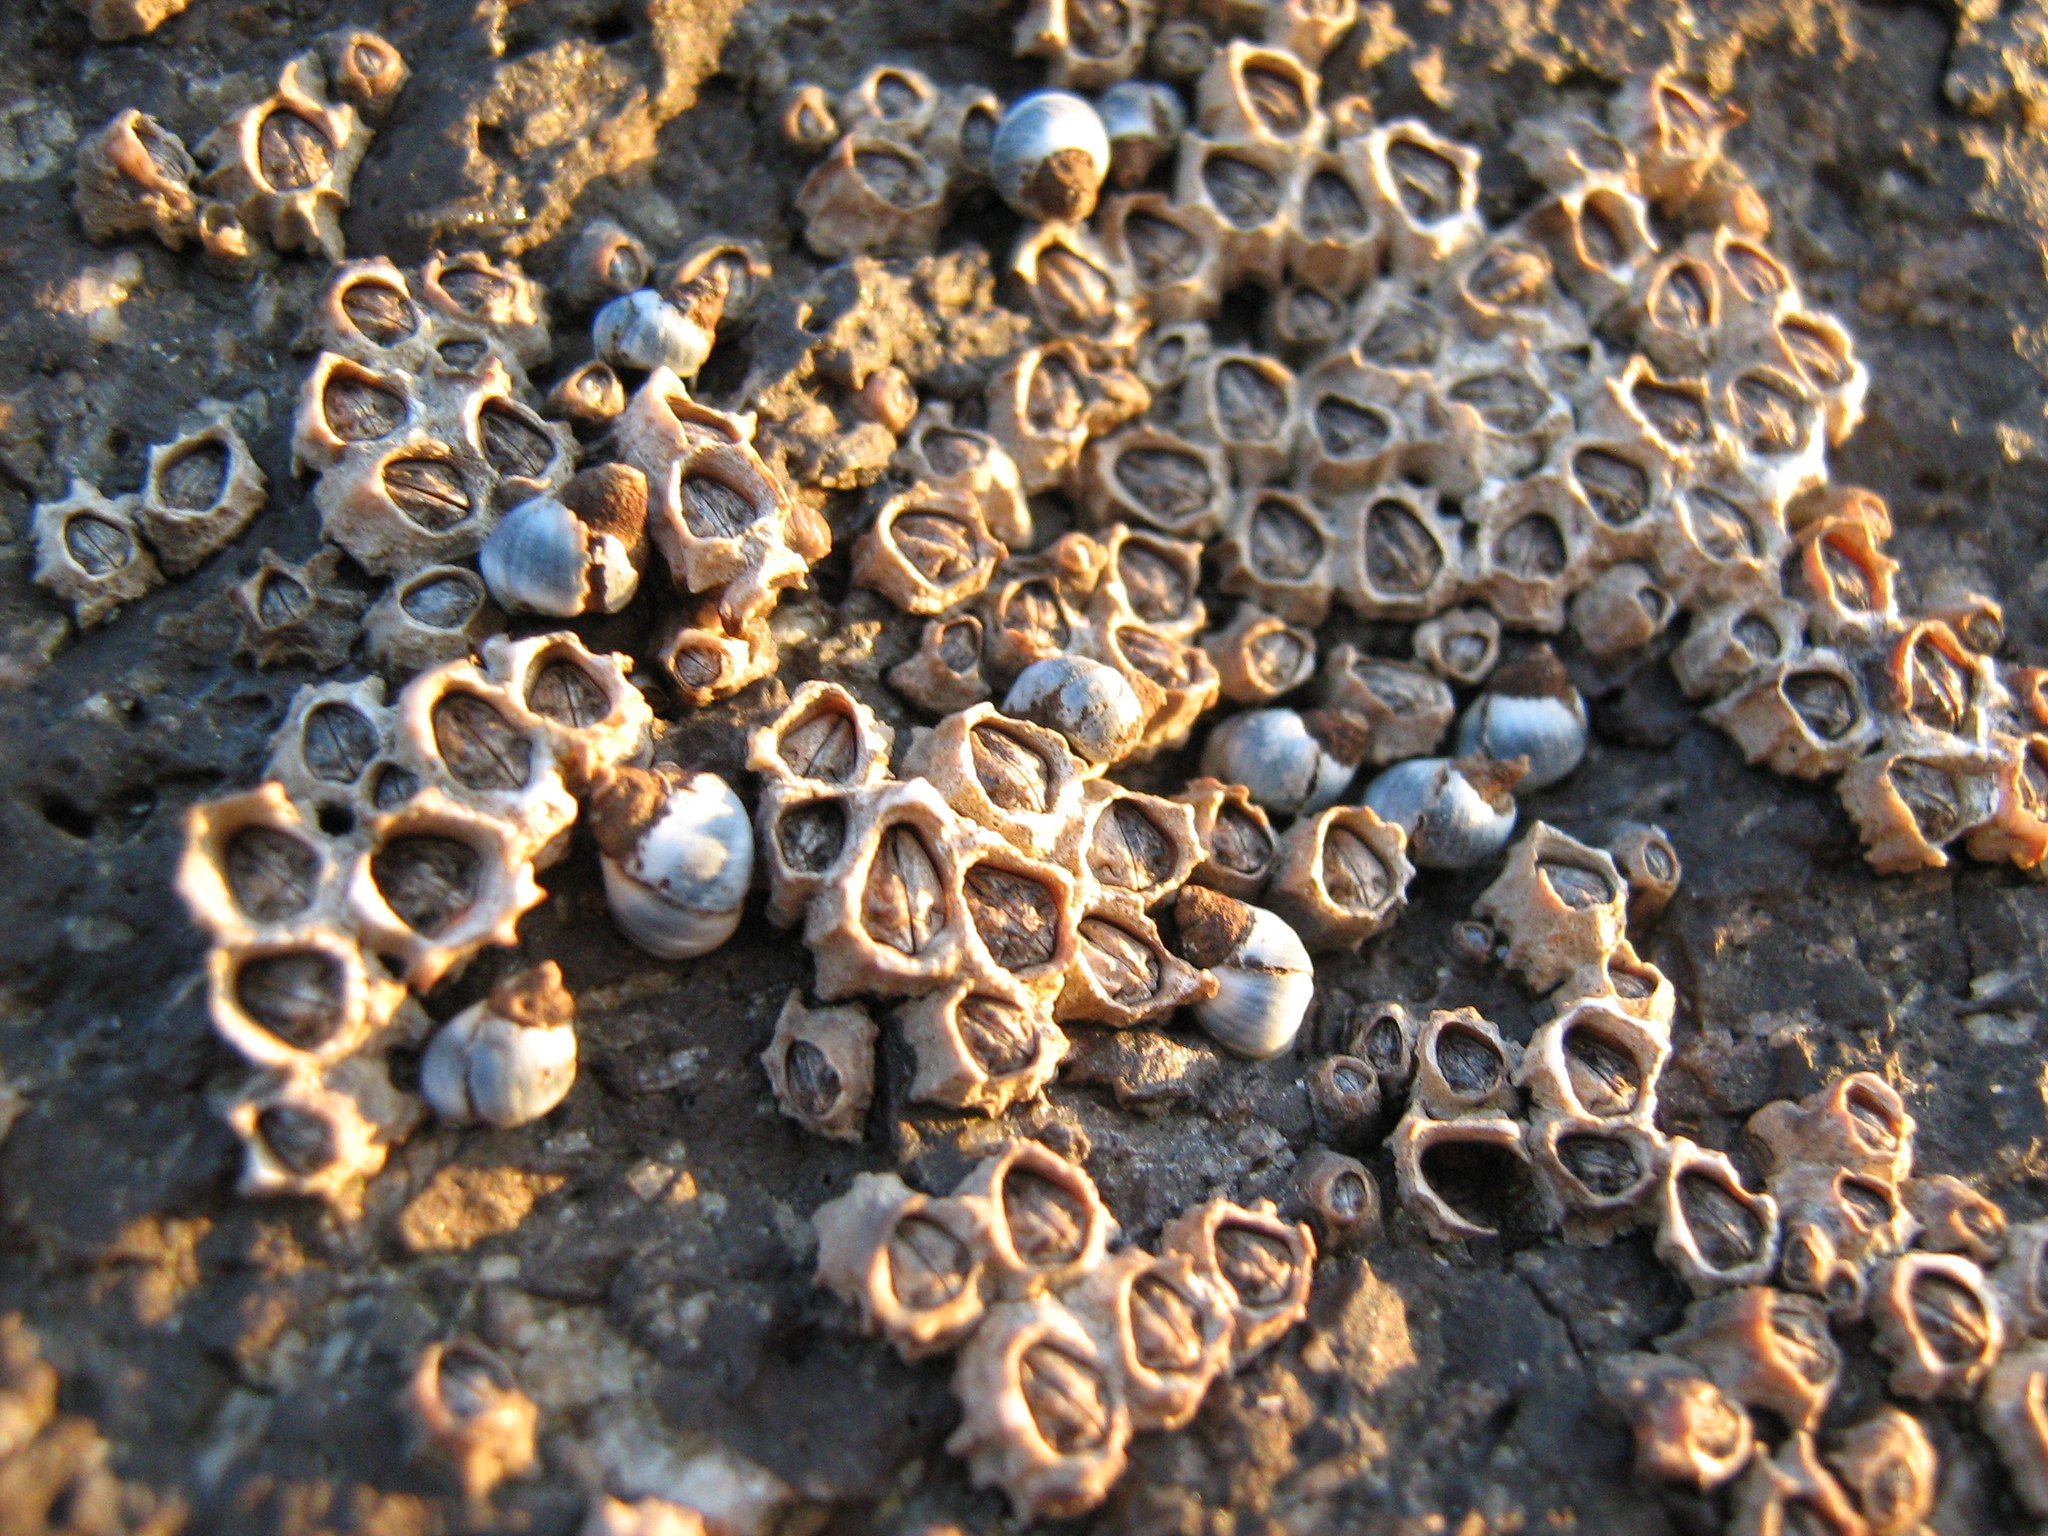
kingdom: Animalia
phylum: Arthropoda
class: Maxillopoda
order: Sessilia
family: Chthamalidae
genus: Chamaesipho
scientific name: Chamaesipho columna
